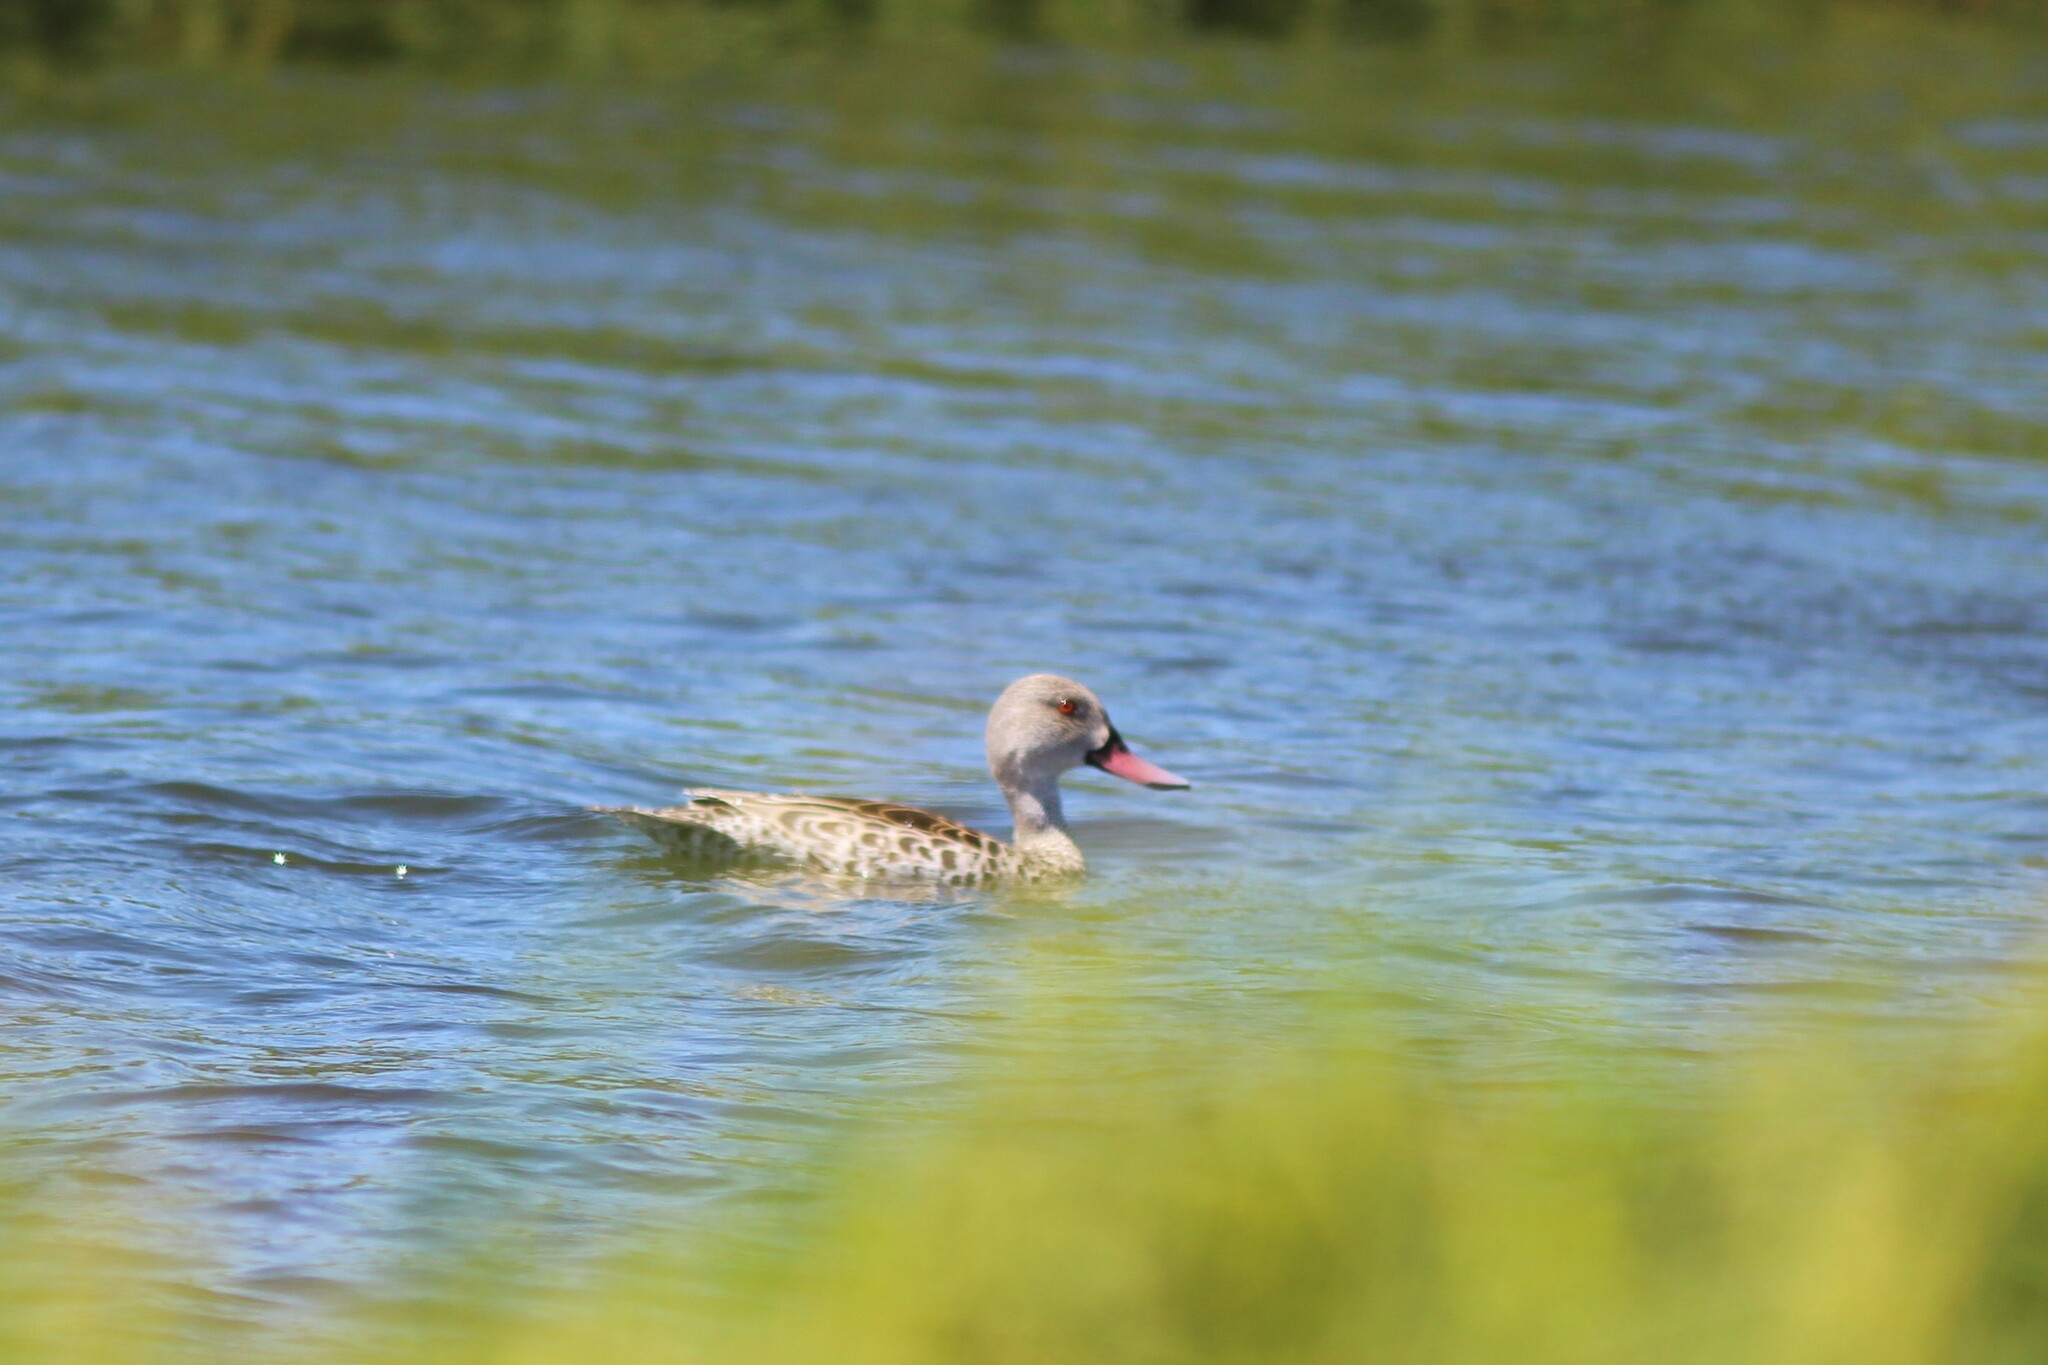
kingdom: Animalia
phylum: Chordata
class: Aves
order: Anseriformes
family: Anatidae
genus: Anas
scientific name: Anas capensis
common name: Cape teal
